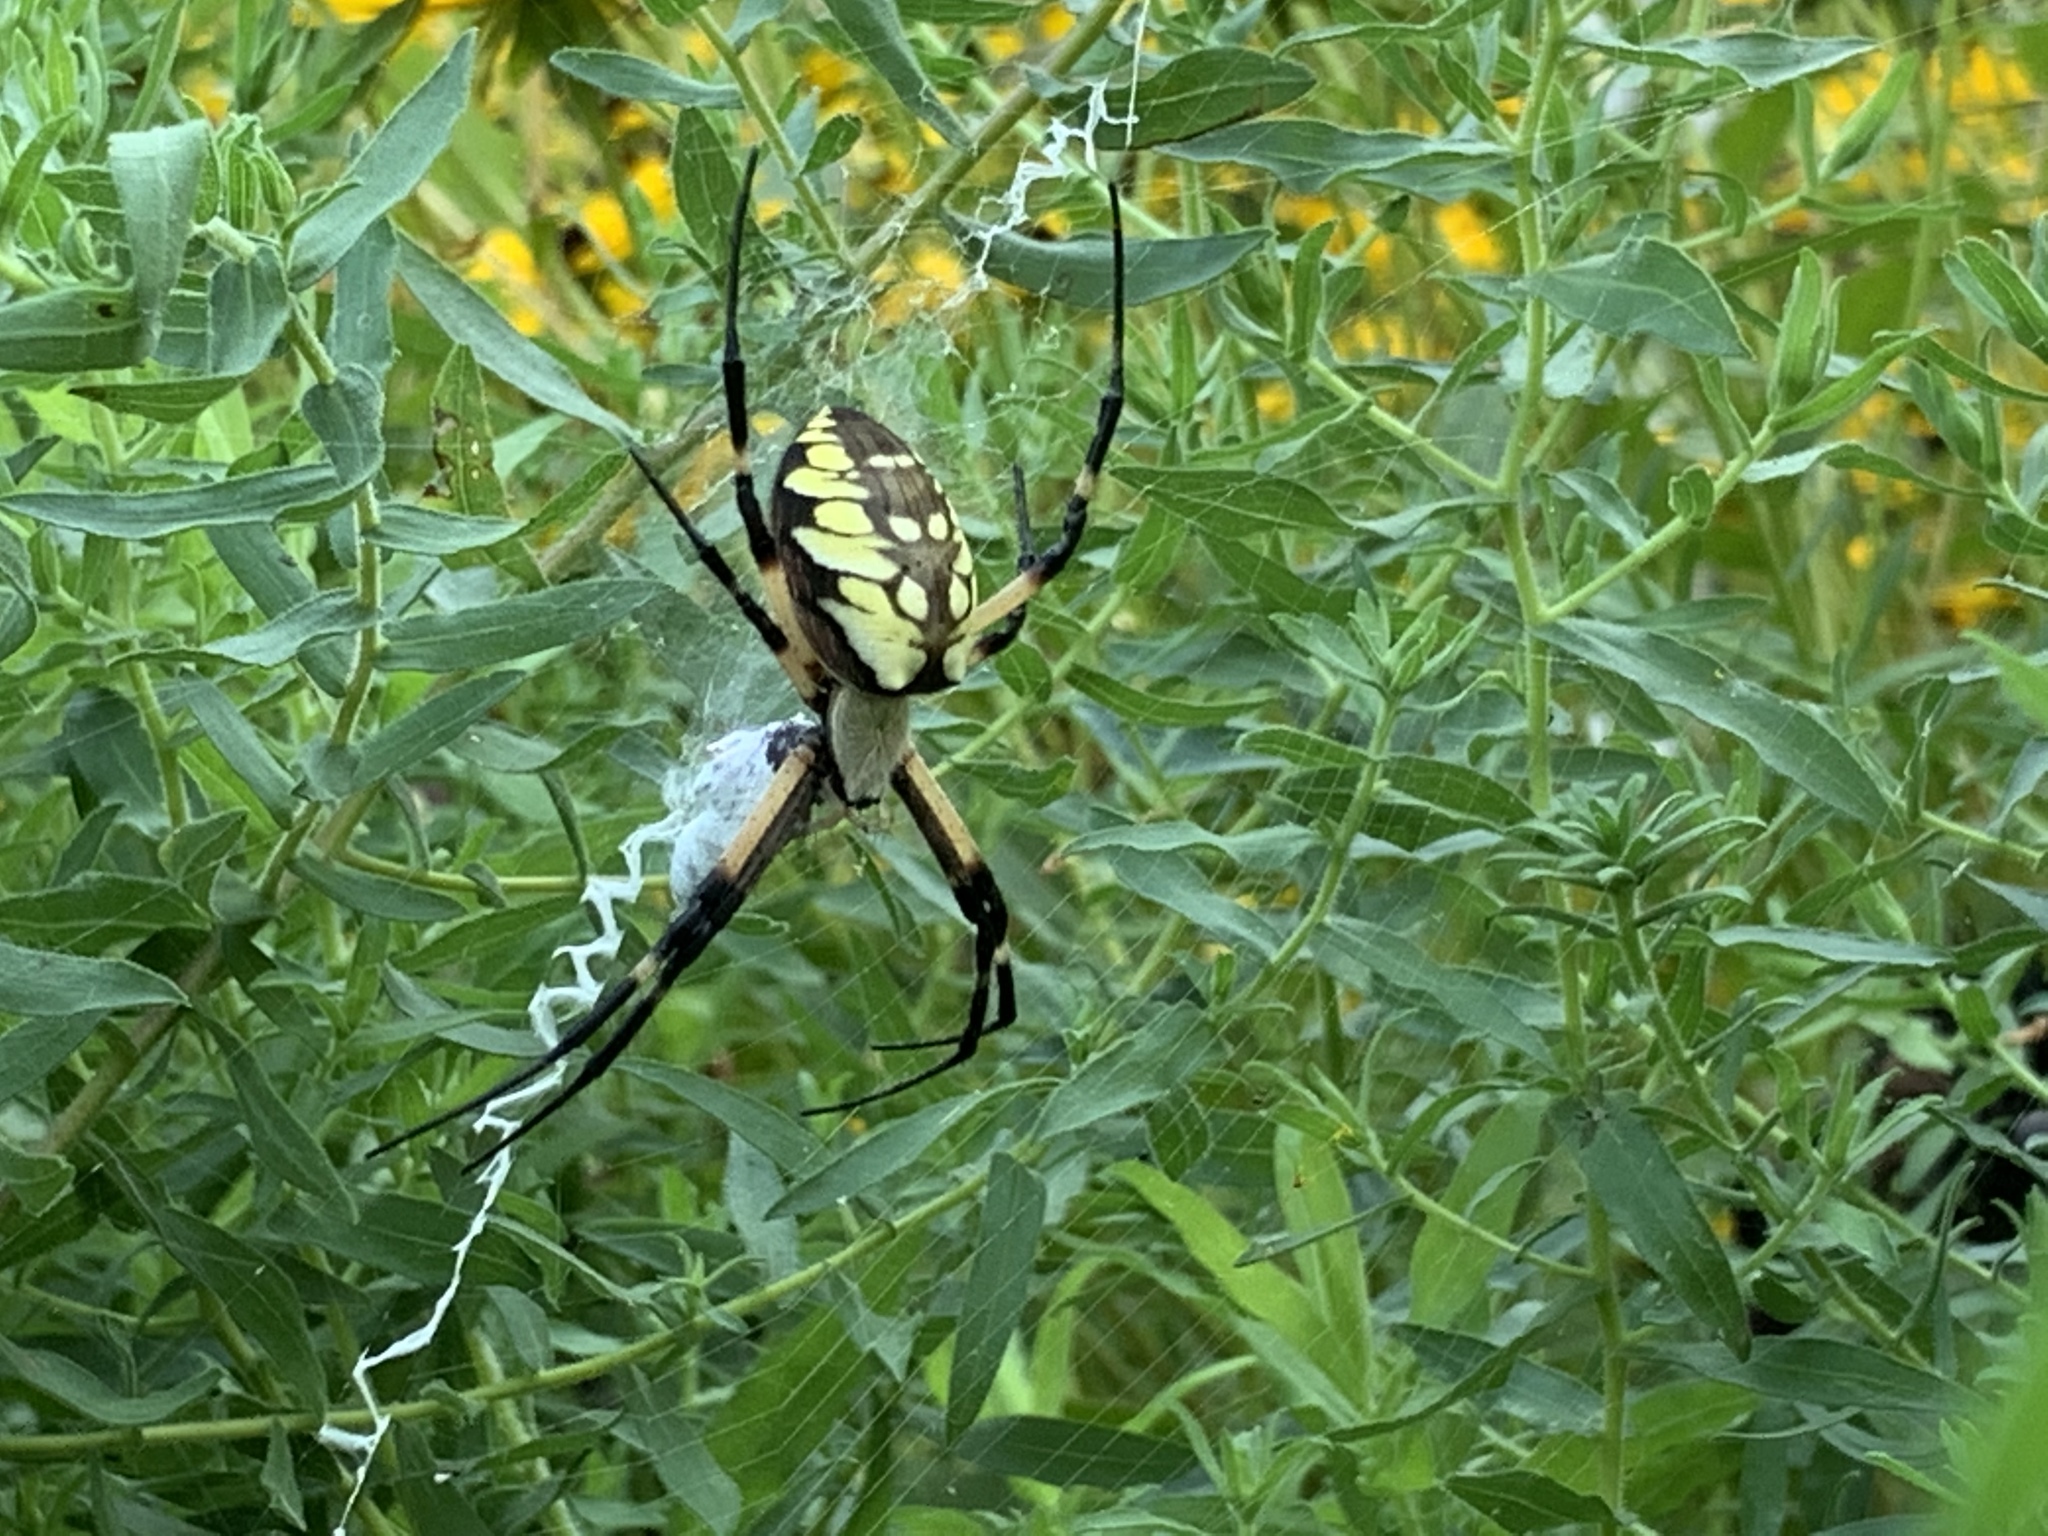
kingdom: Animalia
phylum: Arthropoda
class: Arachnida
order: Araneae
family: Araneidae
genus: Argiope
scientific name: Argiope aurantia
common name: Orb weavers
